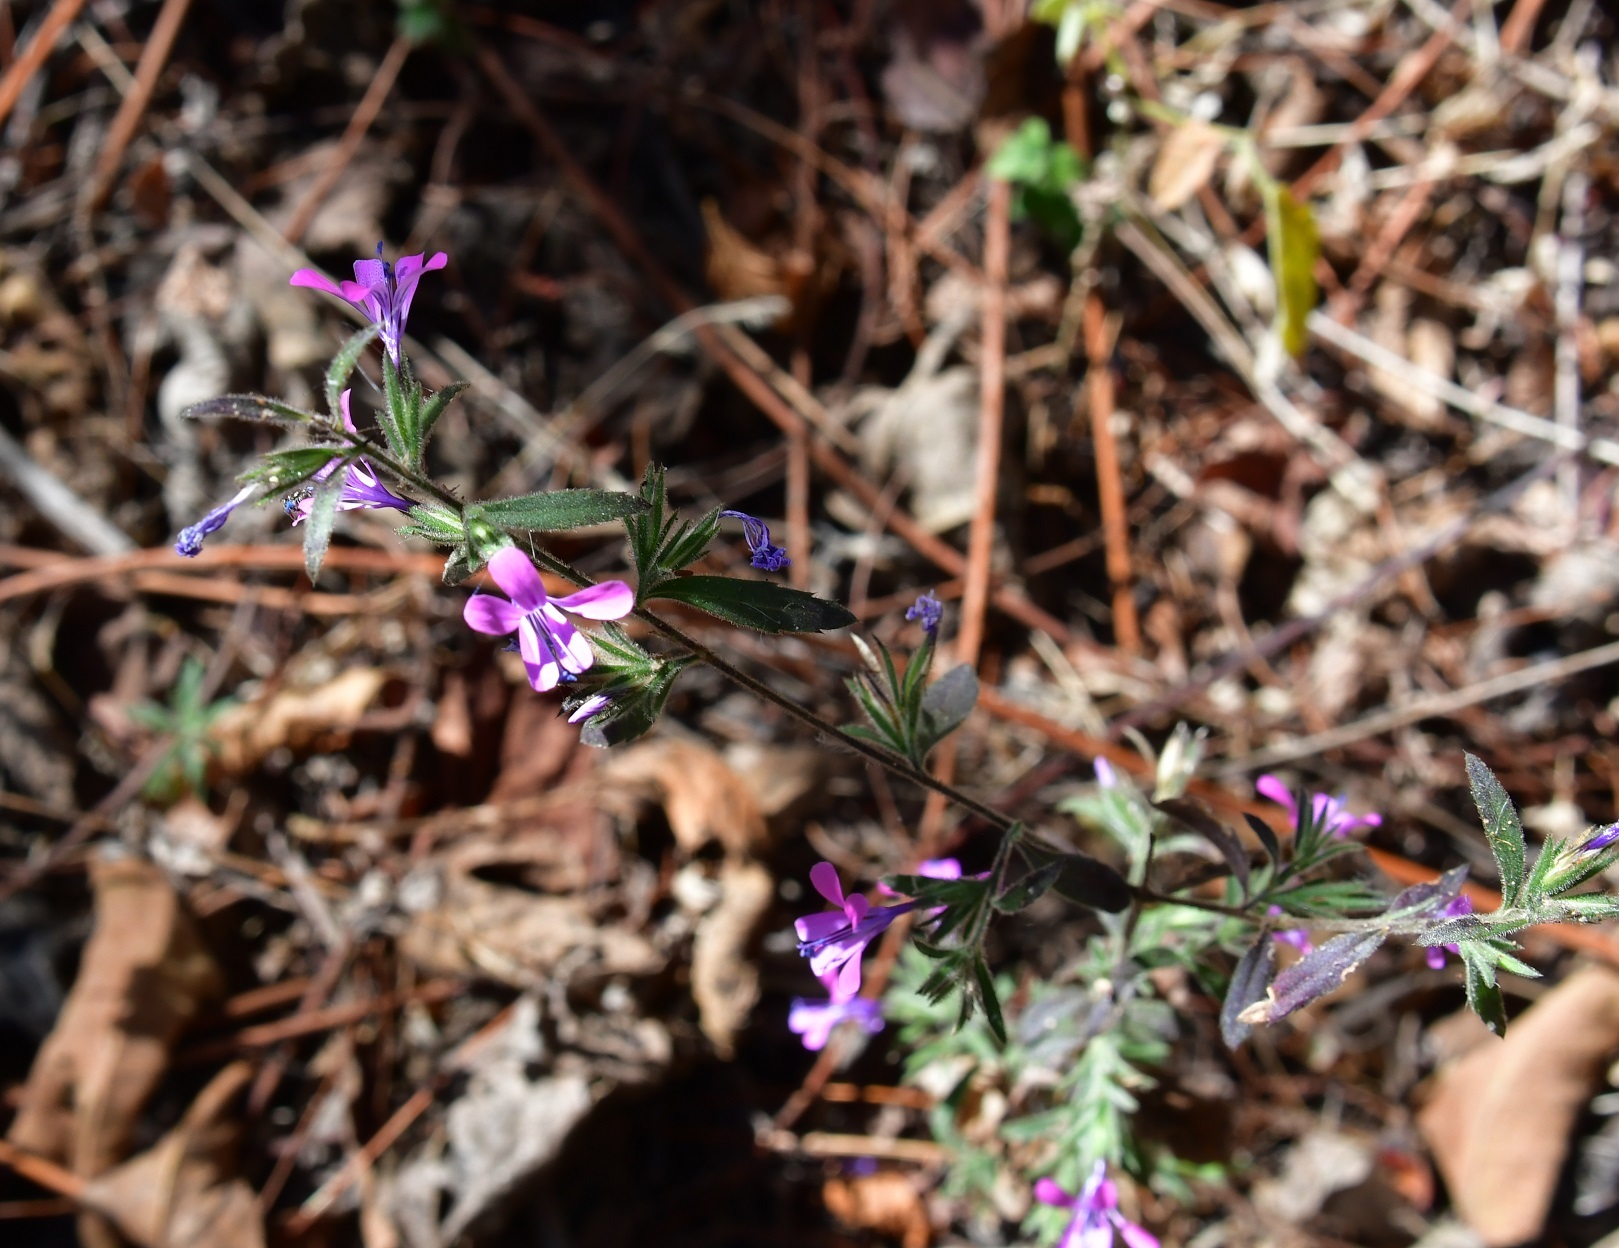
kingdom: Plantae
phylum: Tracheophyta
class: Magnoliopsida
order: Ericales
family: Polemoniaceae
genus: Loeselia
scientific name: Loeselia glandulosa
